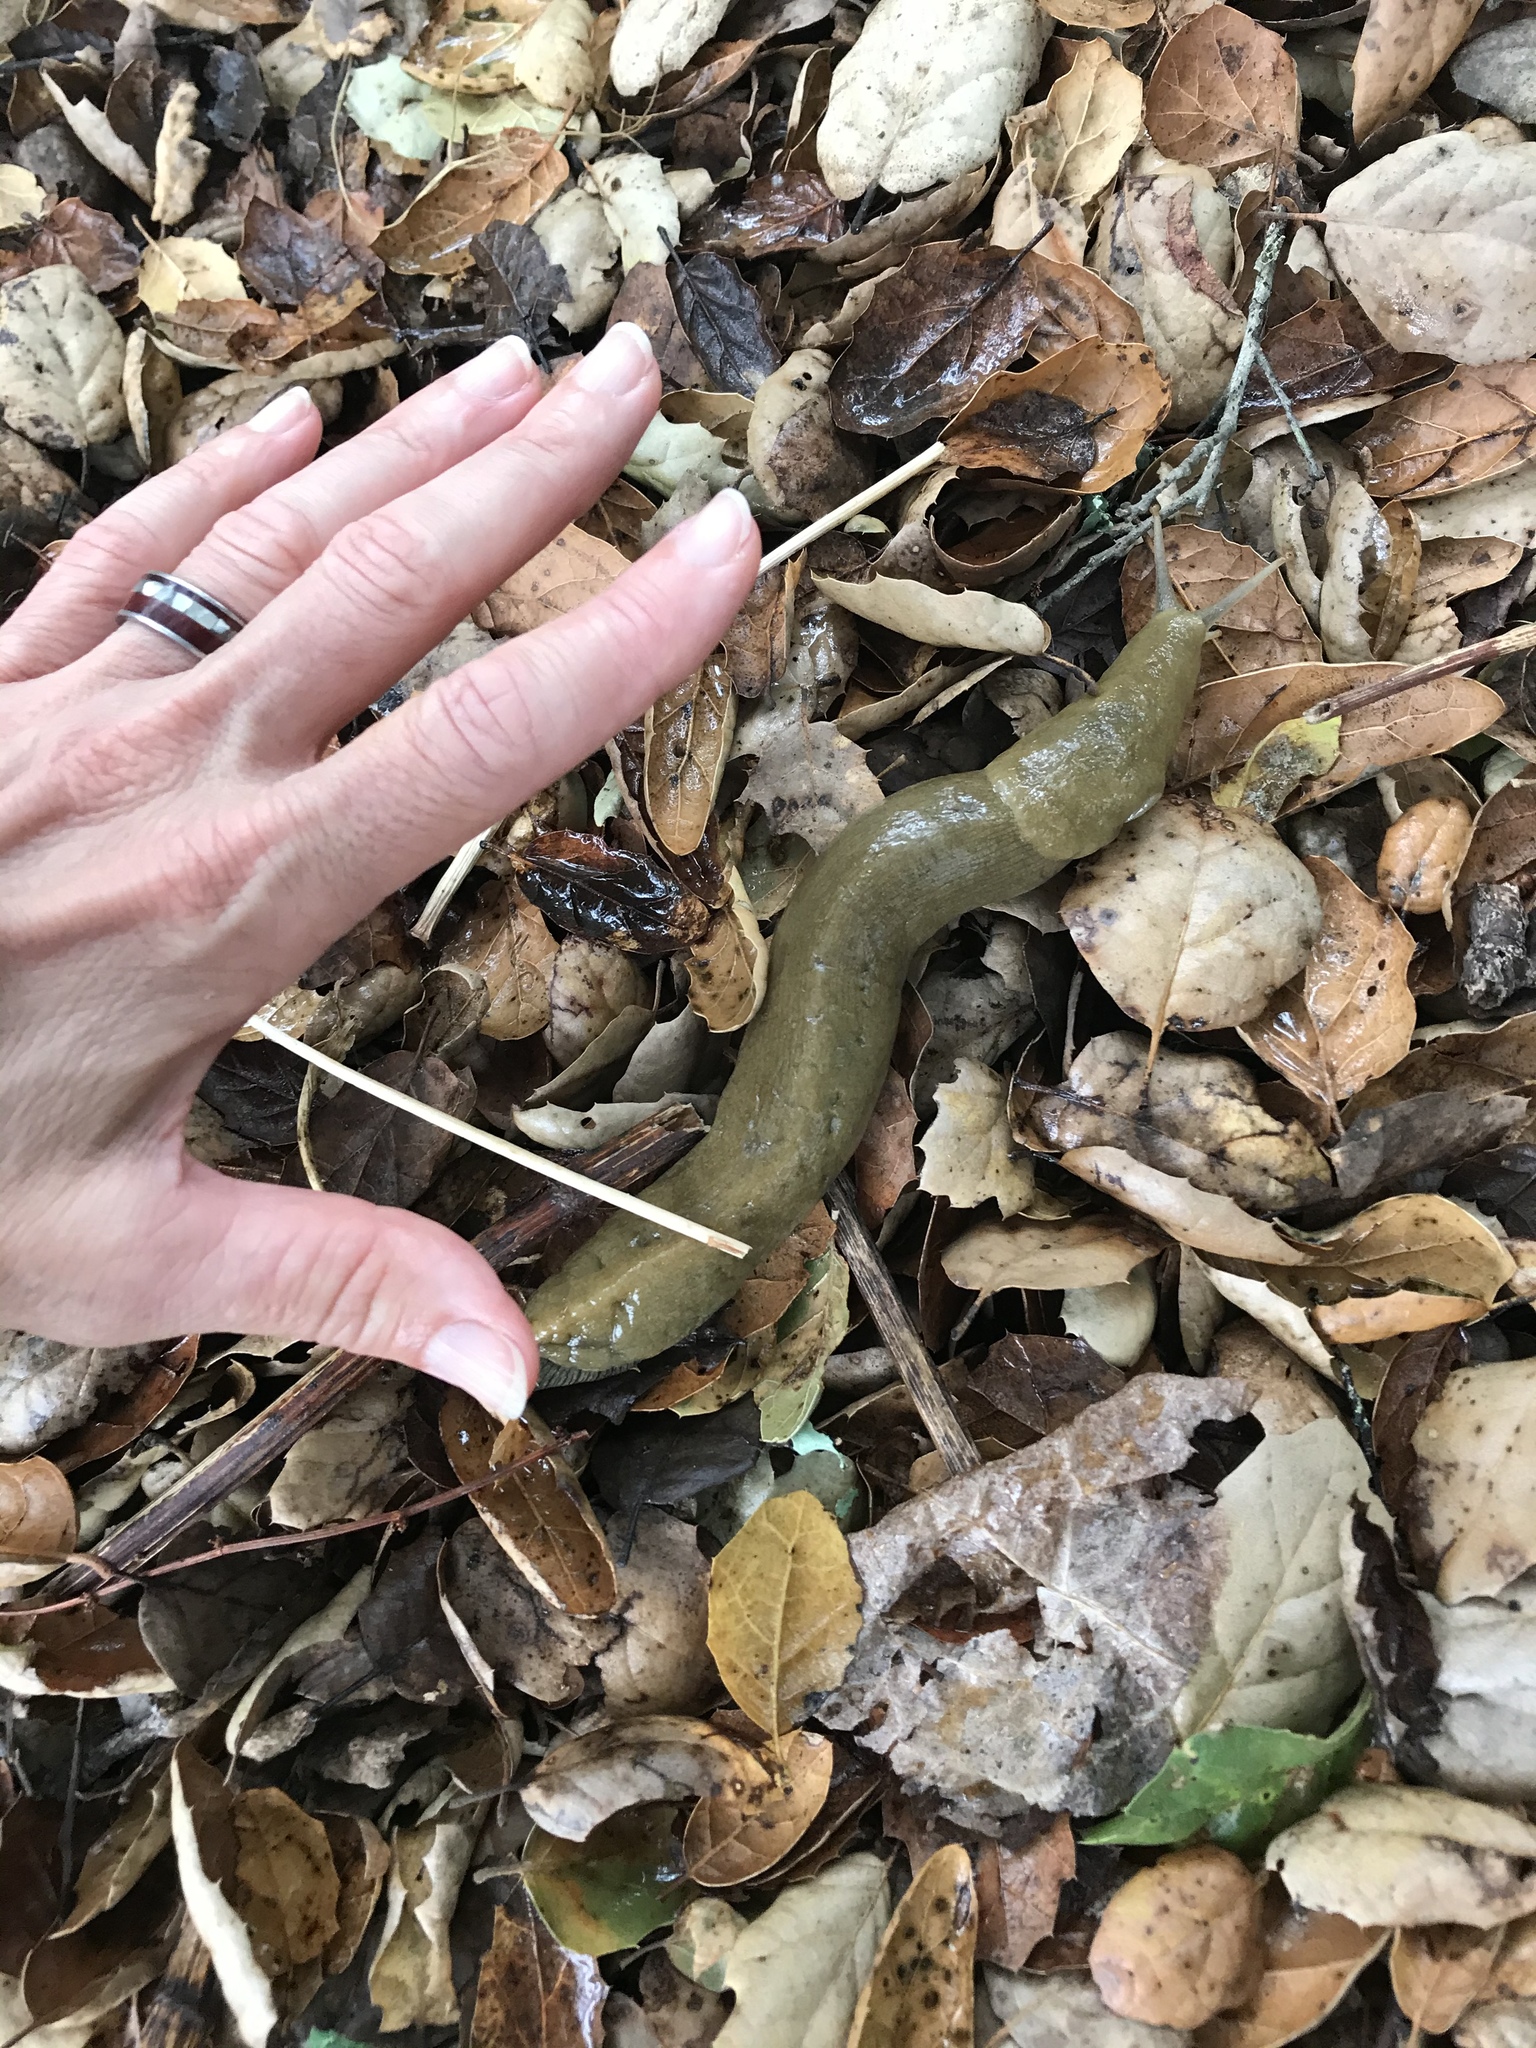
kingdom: Animalia
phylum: Mollusca
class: Gastropoda
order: Stylommatophora
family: Ariolimacidae
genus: Ariolimax
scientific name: Ariolimax buttoni
